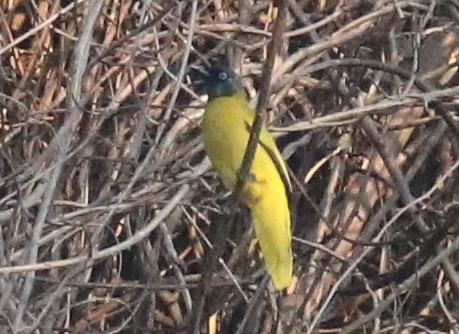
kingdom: Animalia
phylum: Chordata
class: Aves
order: Passeriformes
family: Pycnonotidae
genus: Microtarsus
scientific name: Microtarsus
